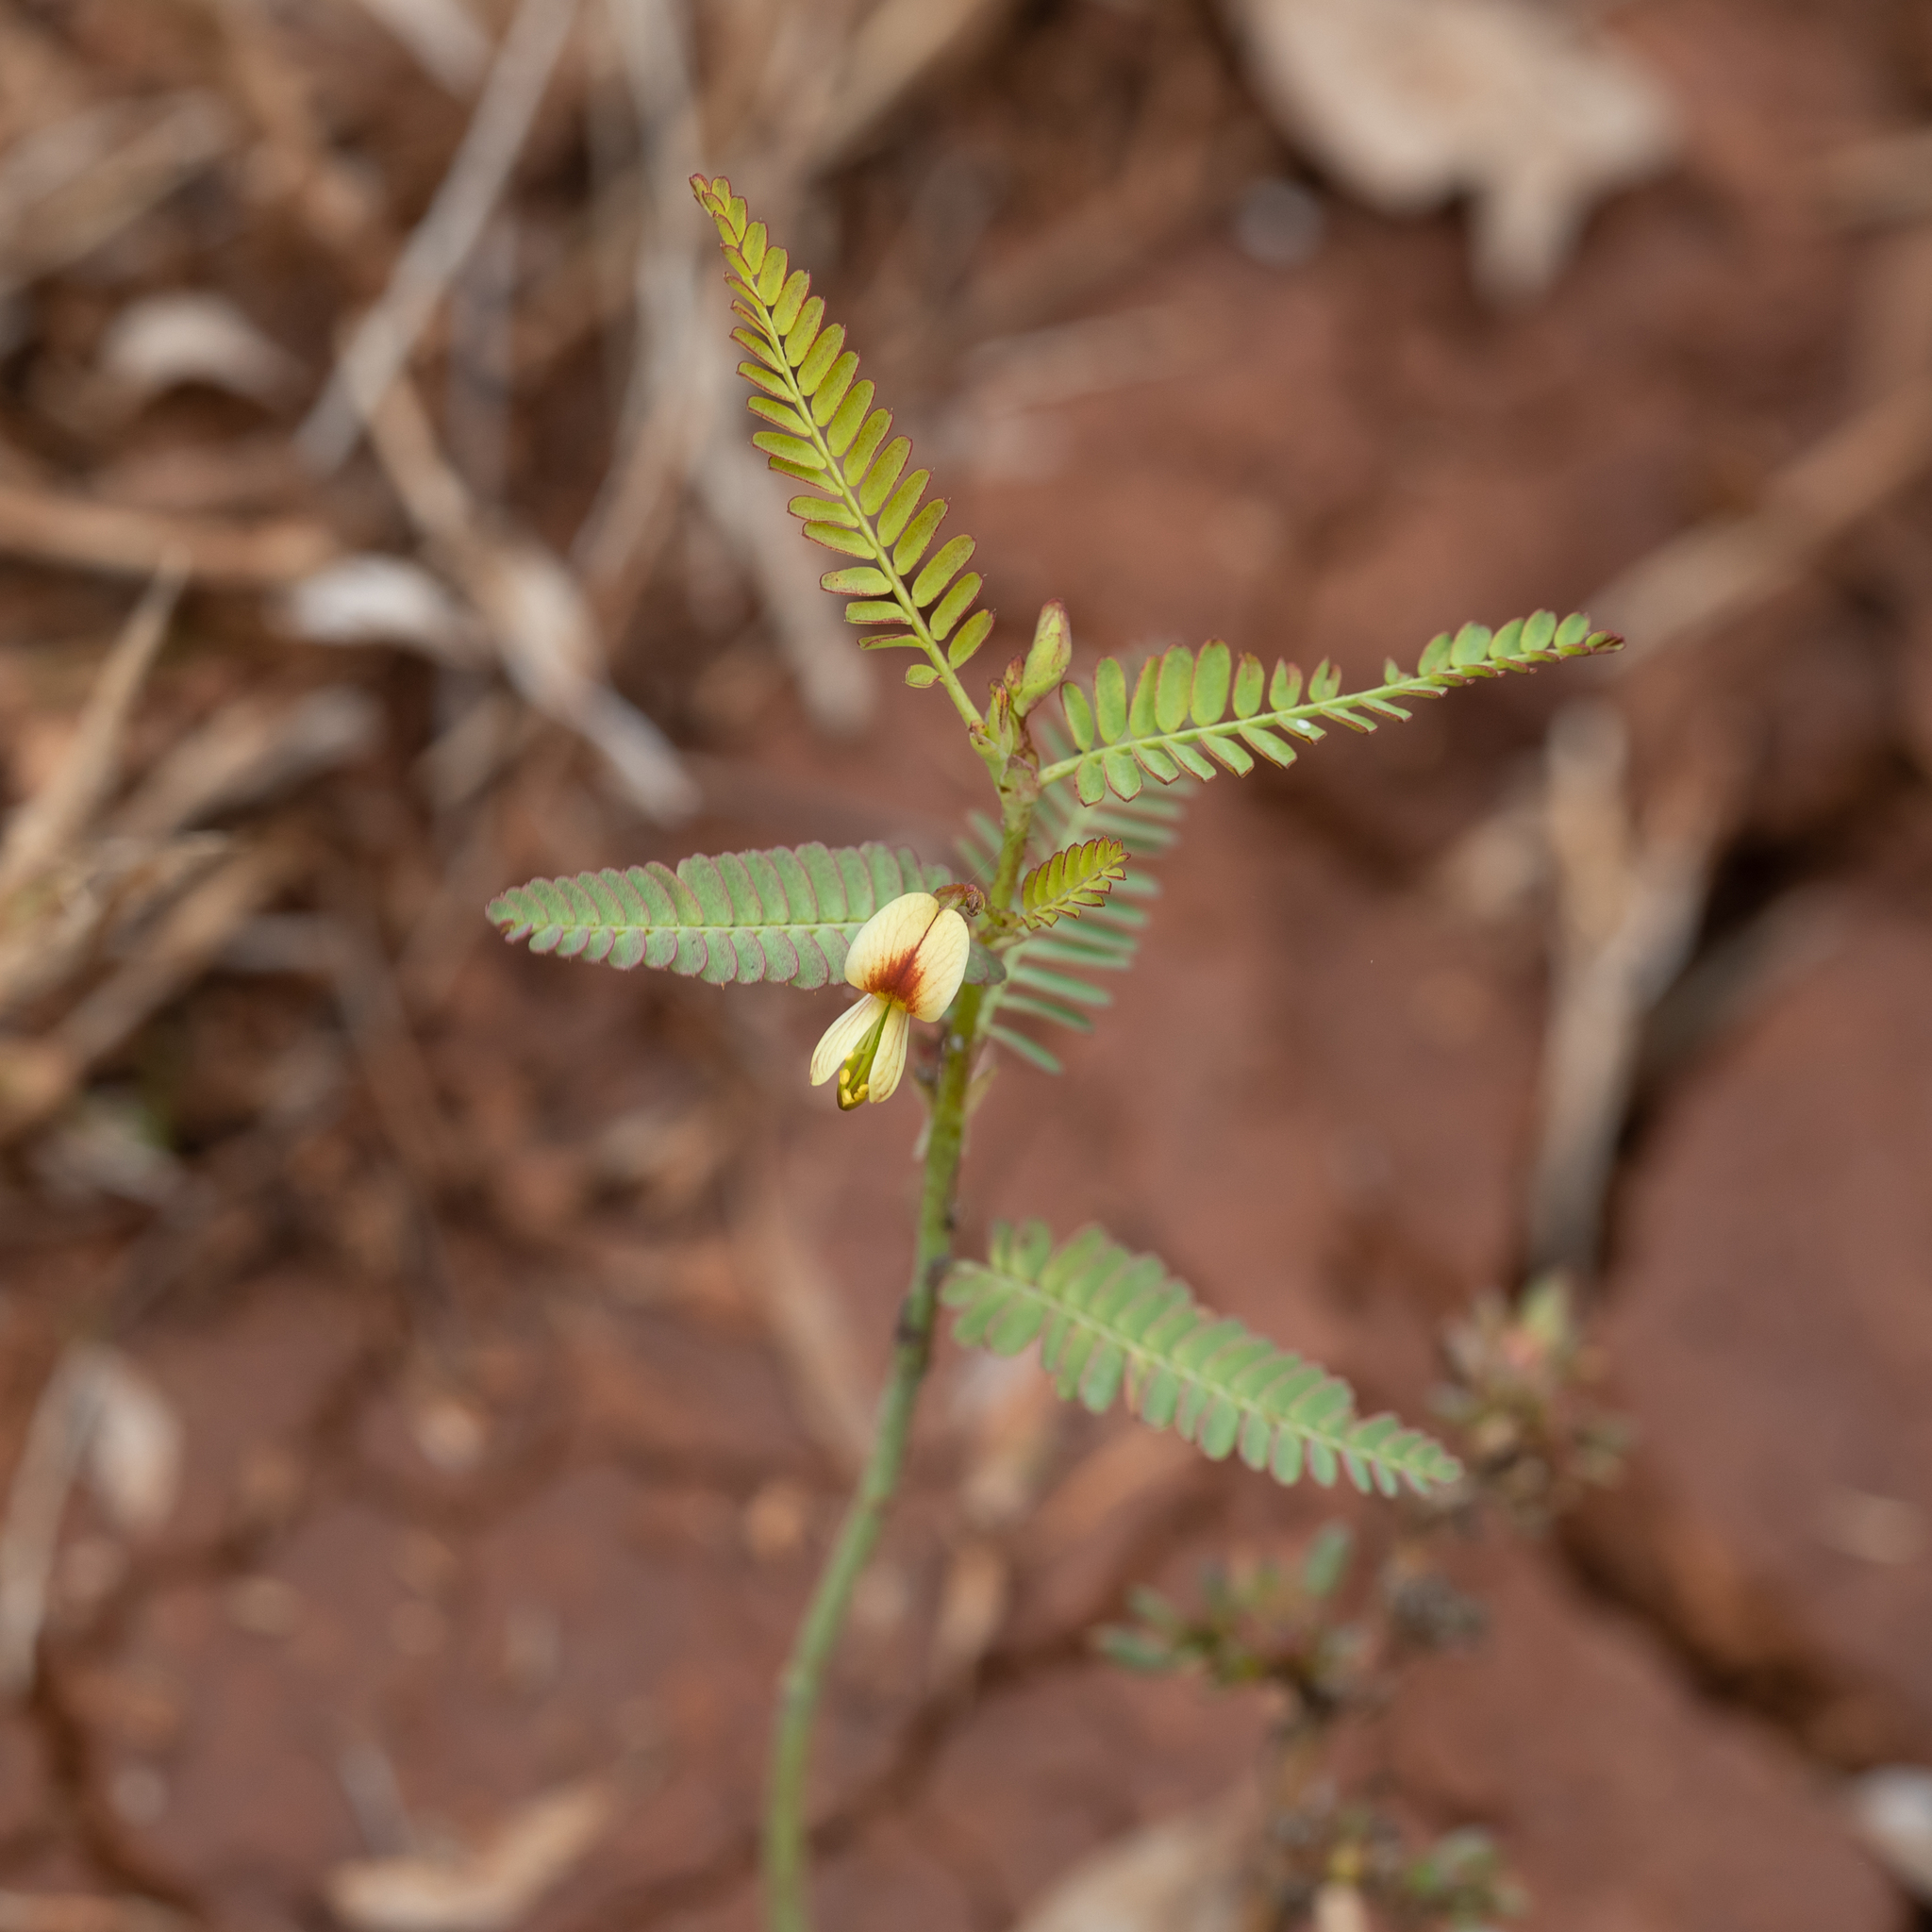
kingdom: Plantae
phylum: Tracheophyta
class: Magnoliopsida
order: Fabales
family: Fabaceae
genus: Aeschynomene
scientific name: Aeschynomene indica
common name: Indian jointvetch
